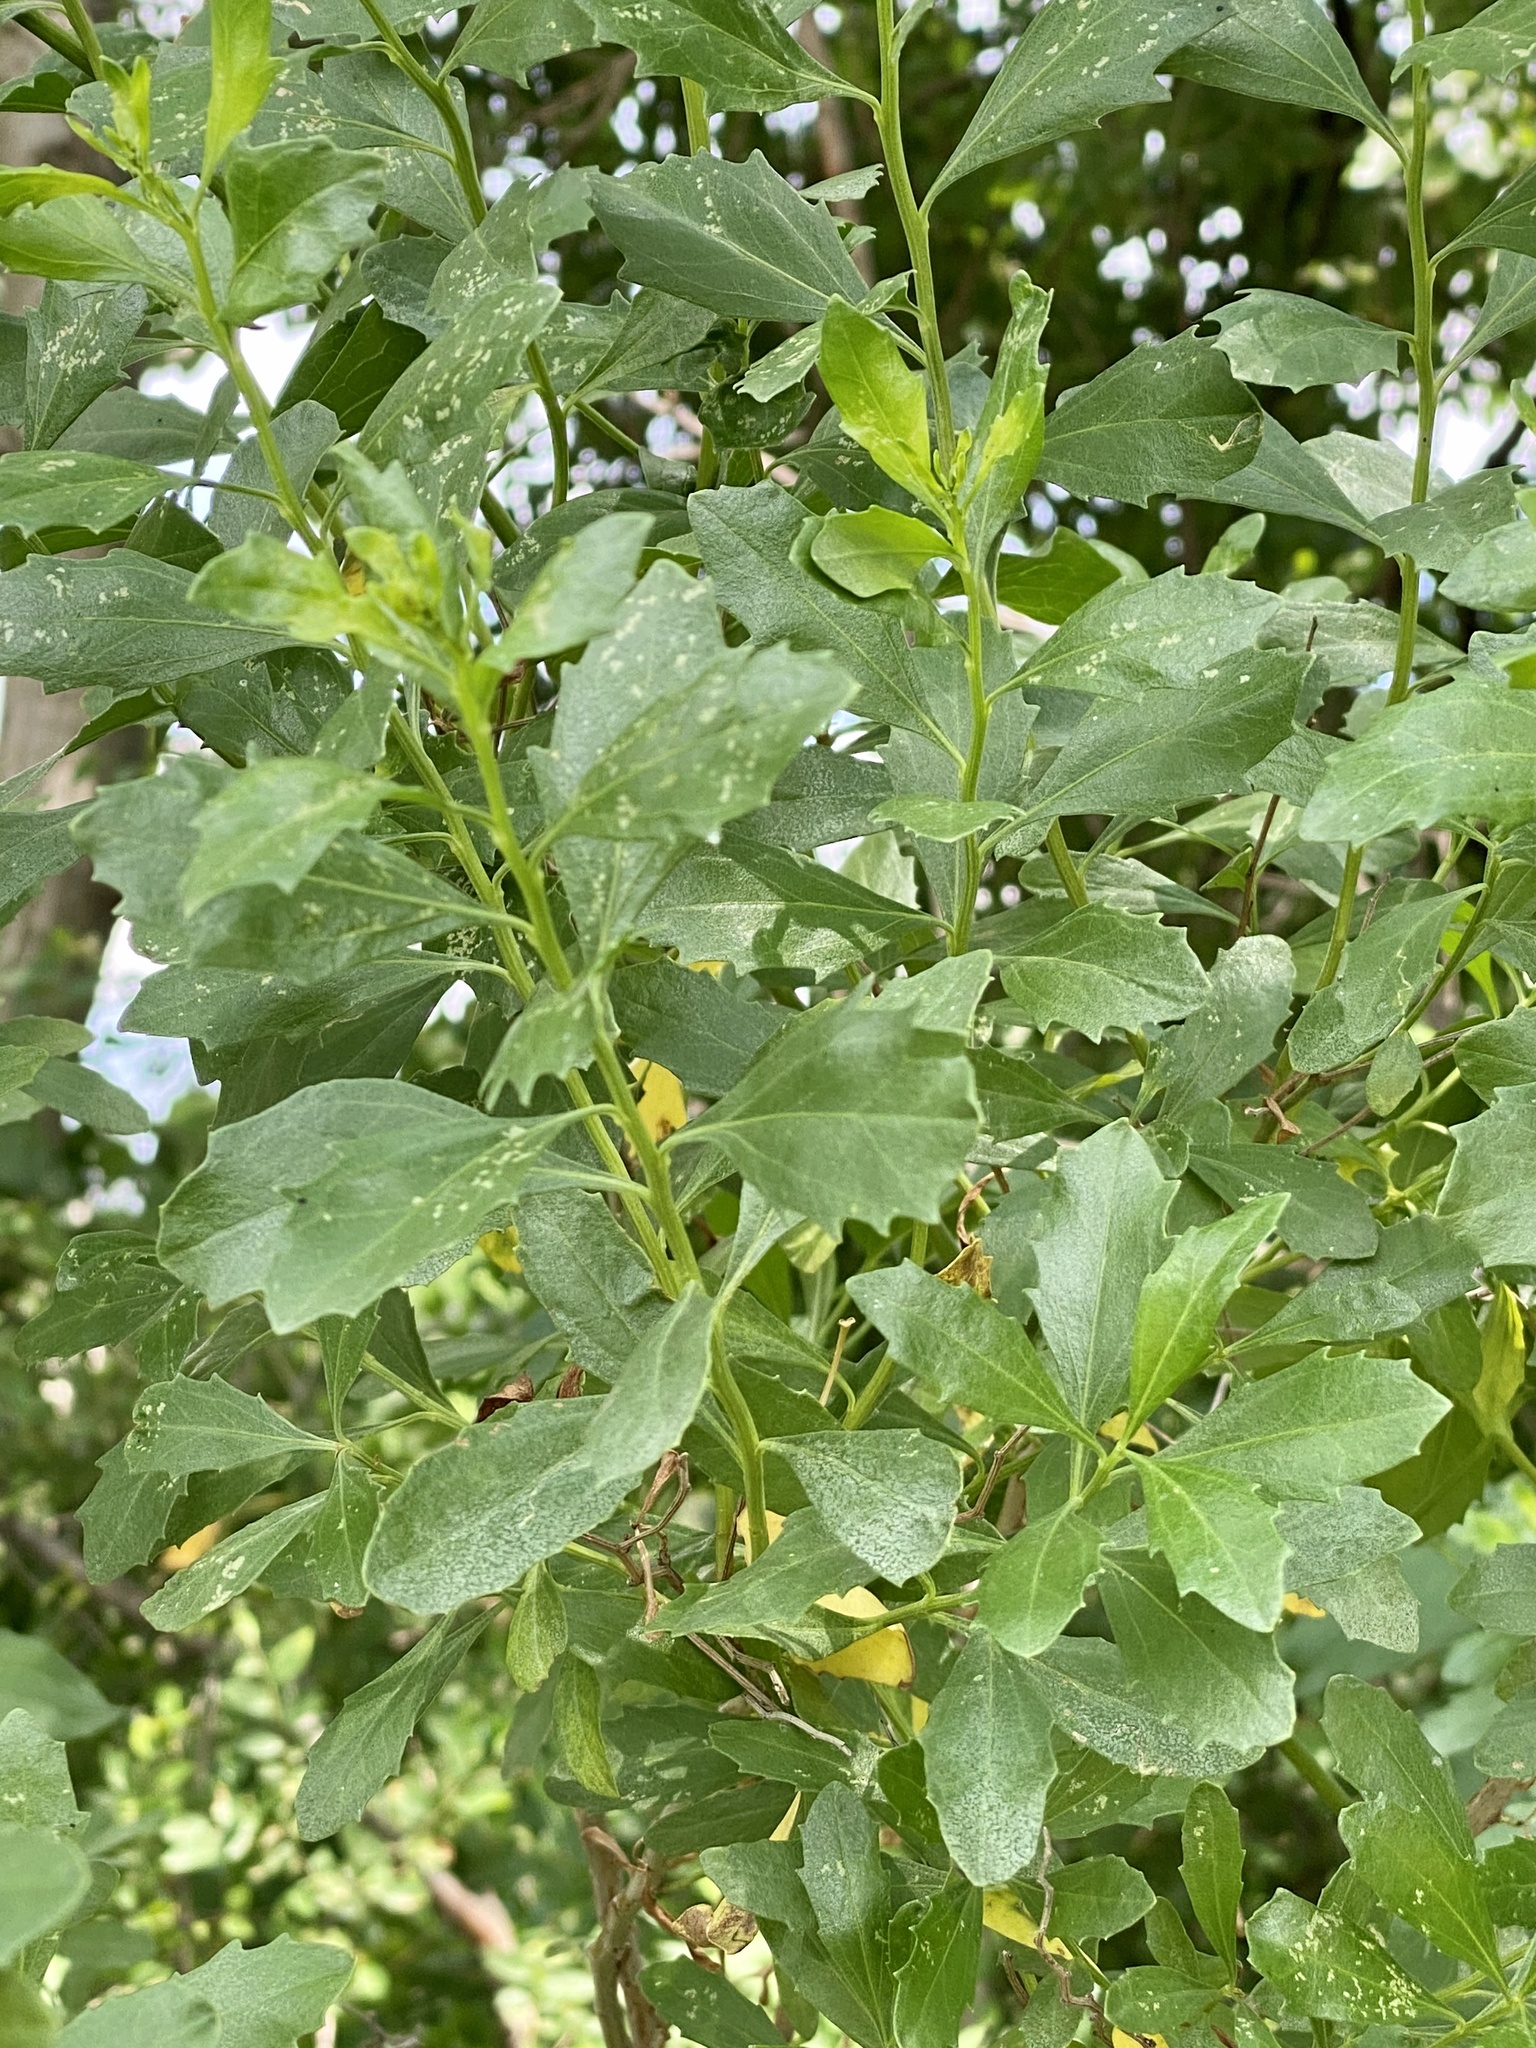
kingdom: Plantae
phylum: Tracheophyta
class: Magnoliopsida
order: Asterales
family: Asteraceae
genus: Baccharis
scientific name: Baccharis halimifolia
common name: Eastern baccharis
